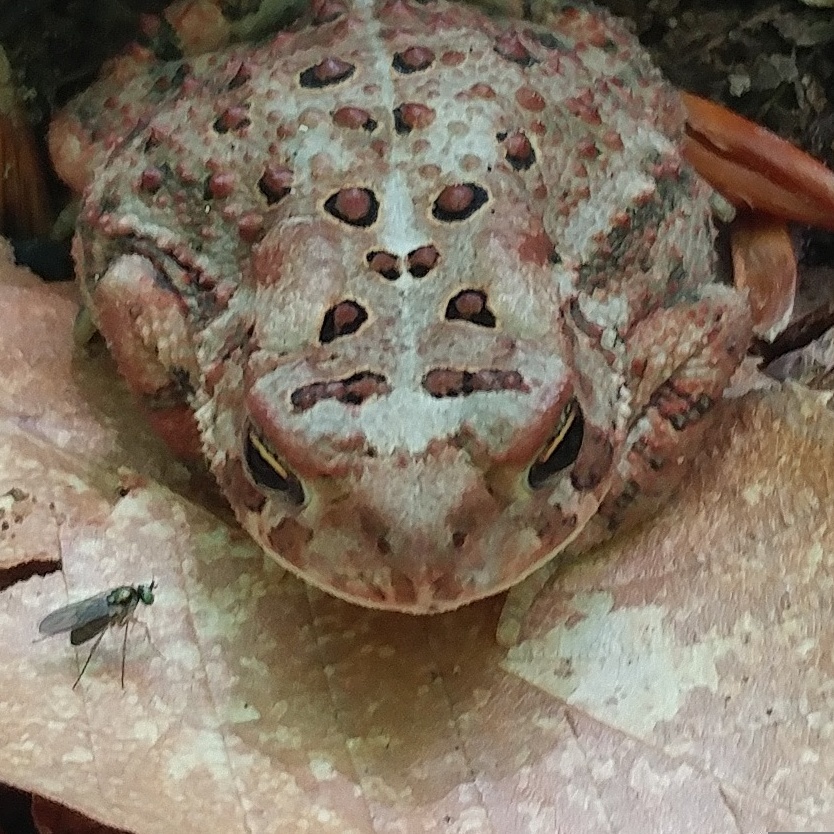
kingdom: Animalia
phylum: Chordata
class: Amphibia
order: Anura
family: Bufonidae
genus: Anaxyrus
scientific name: Anaxyrus americanus
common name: American toad
